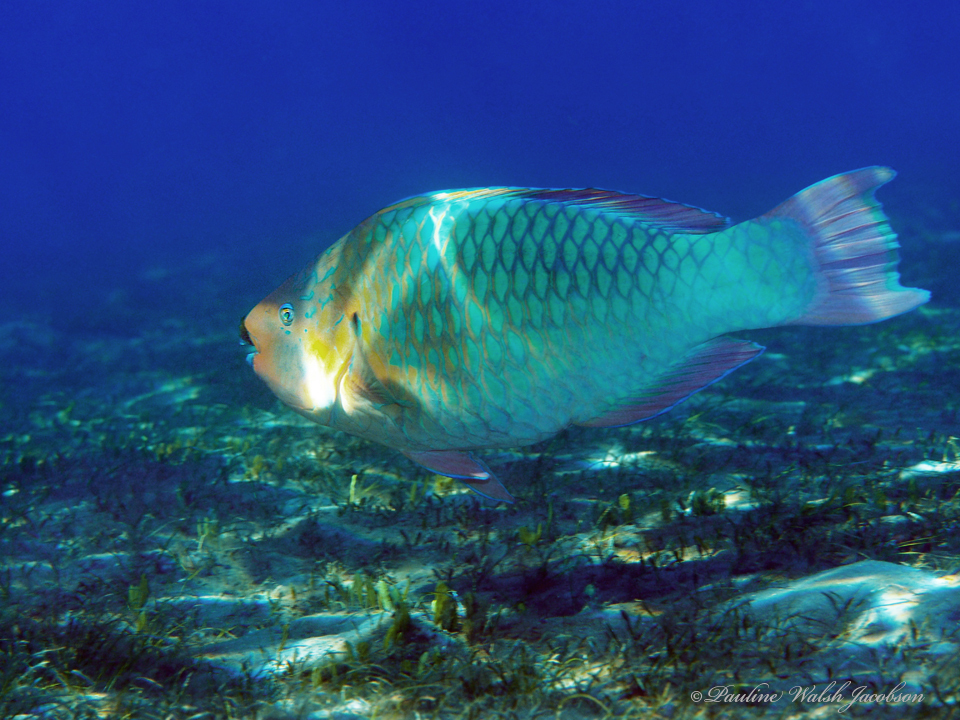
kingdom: Animalia
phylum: Chordata
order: Perciformes
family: Scaridae
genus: Scarus
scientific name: Scarus guacamaia
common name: Rainbow parrotfish
